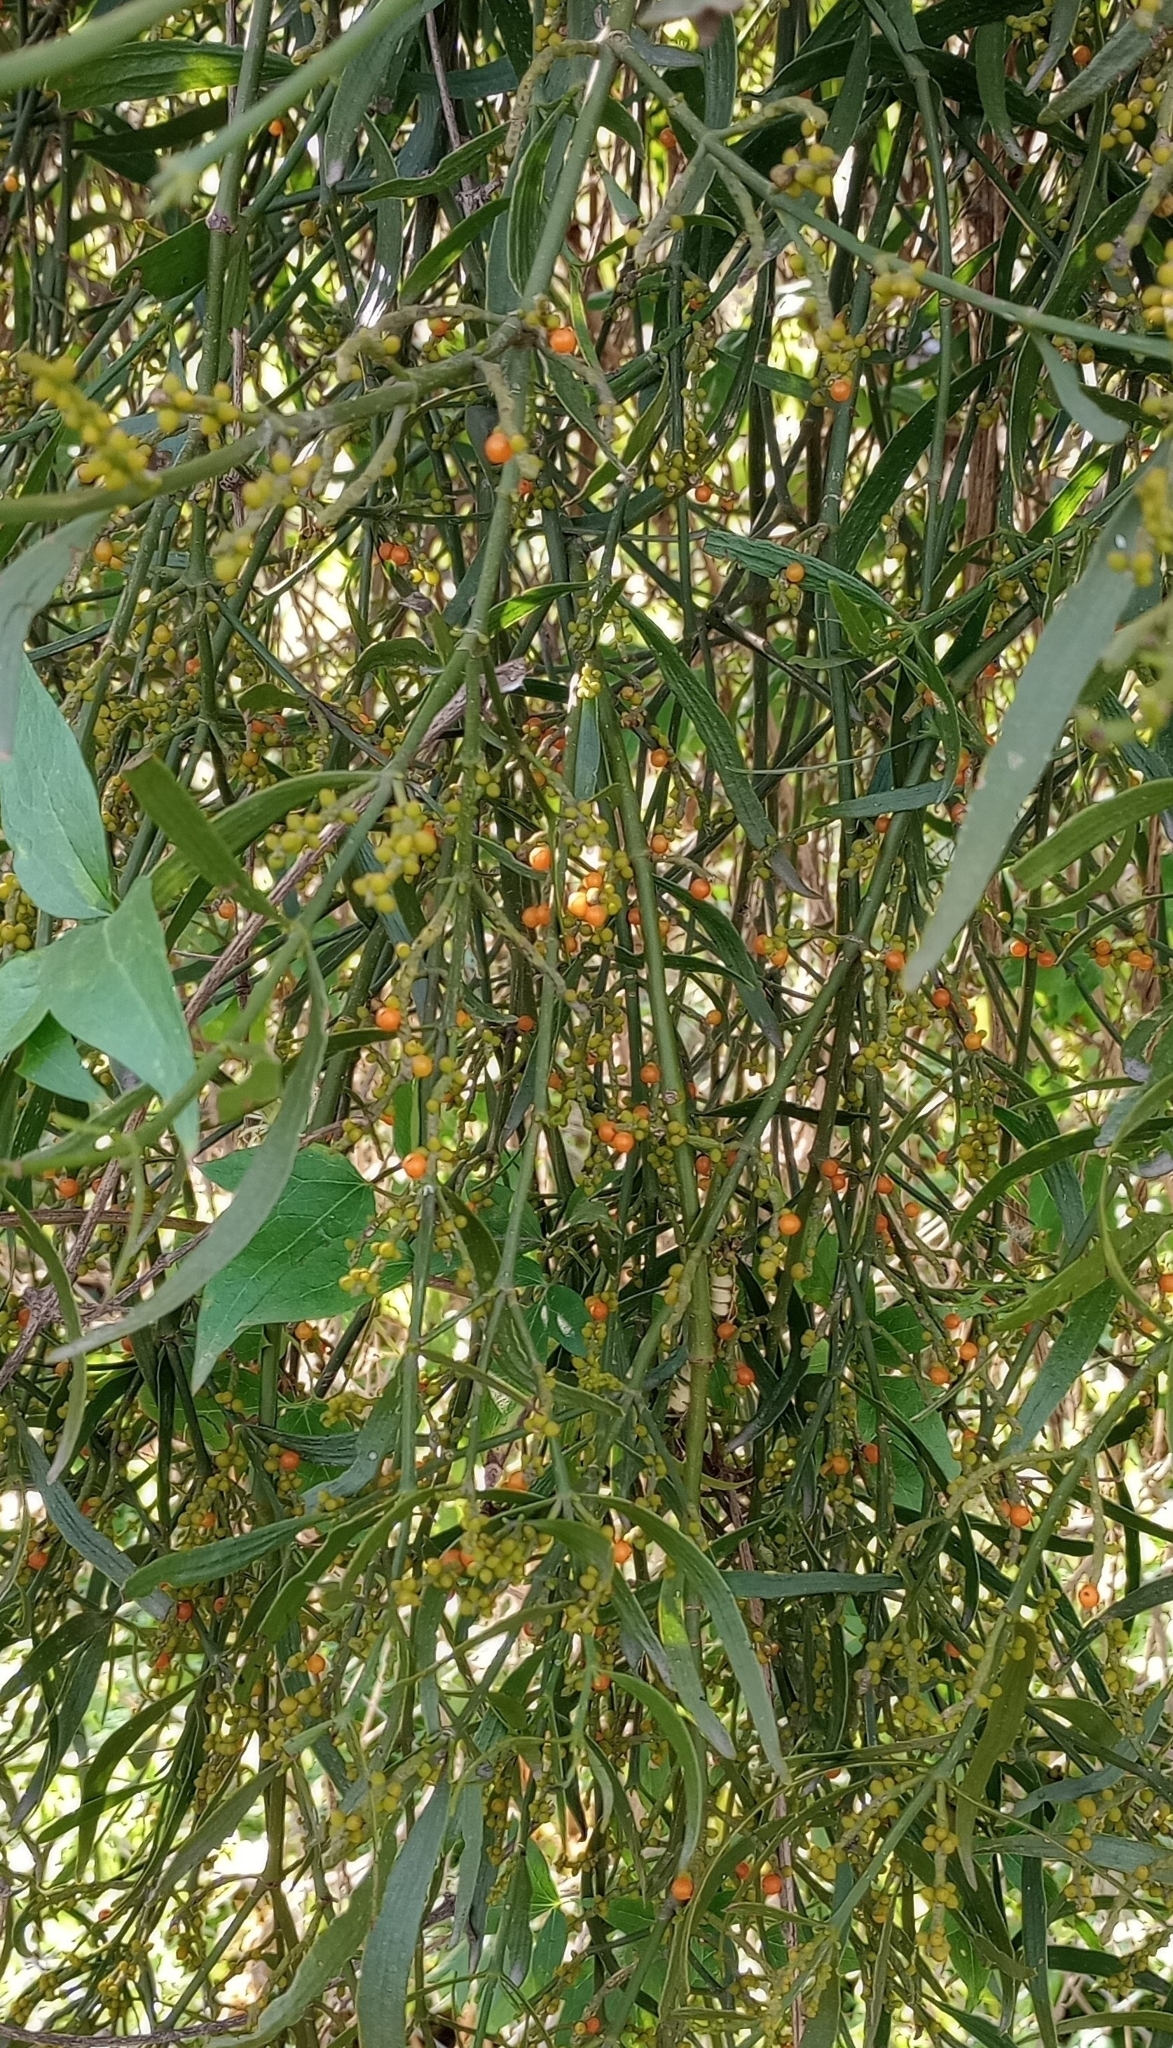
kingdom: Plantae
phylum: Tracheophyta
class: Magnoliopsida
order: Santalales
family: Viscaceae
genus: Phoradendron
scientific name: Phoradendron quadrangulare
